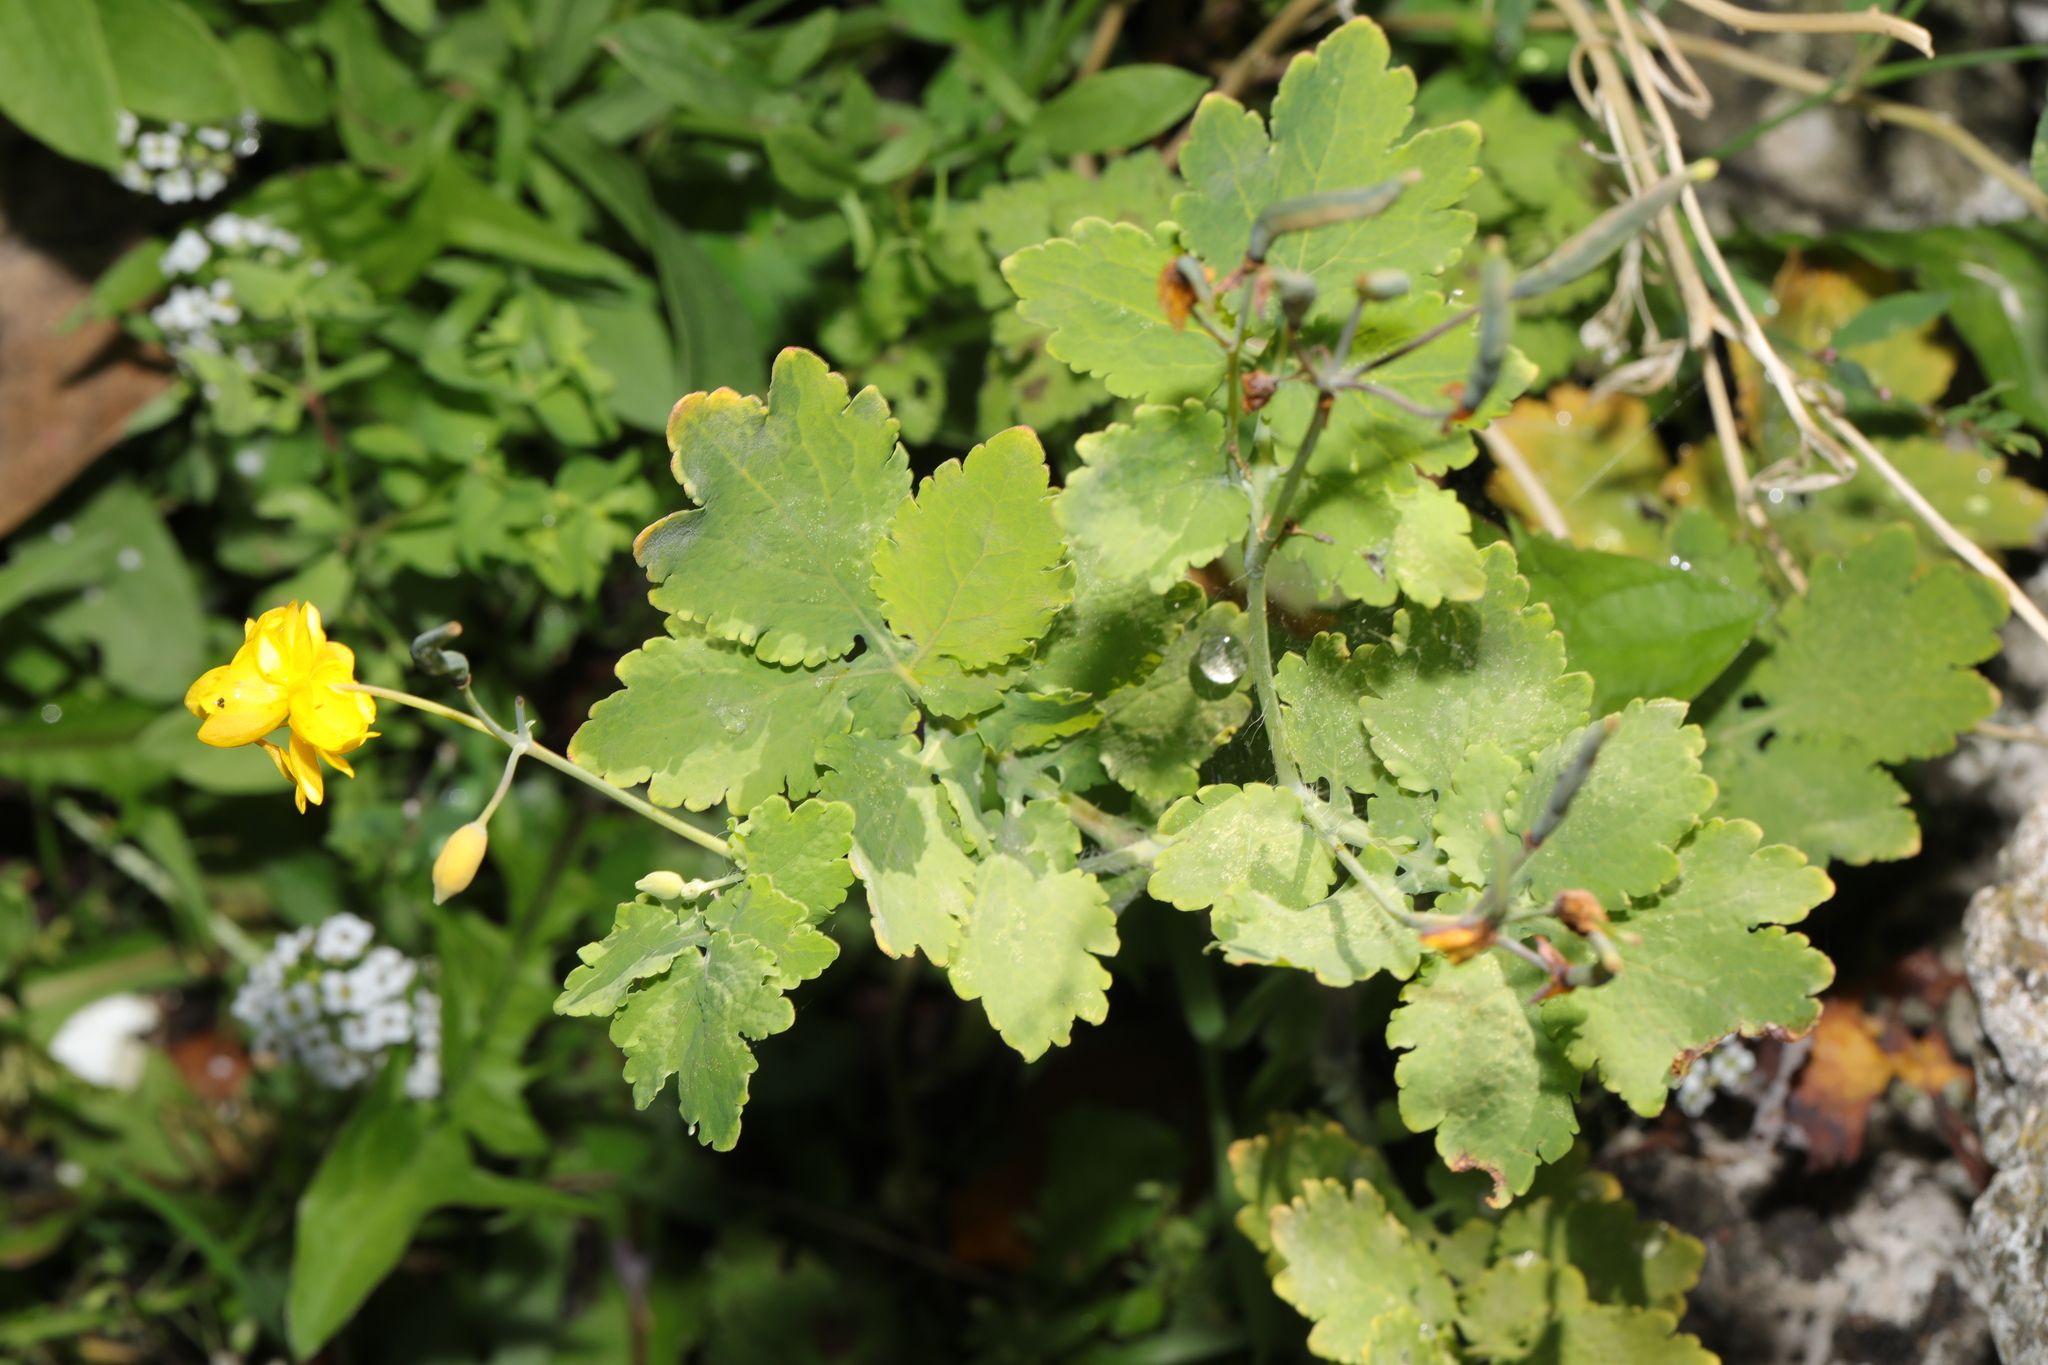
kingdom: Plantae
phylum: Tracheophyta
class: Magnoliopsida
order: Ranunculales
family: Papaveraceae
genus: Chelidonium
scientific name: Chelidonium majus
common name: Greater celandine
